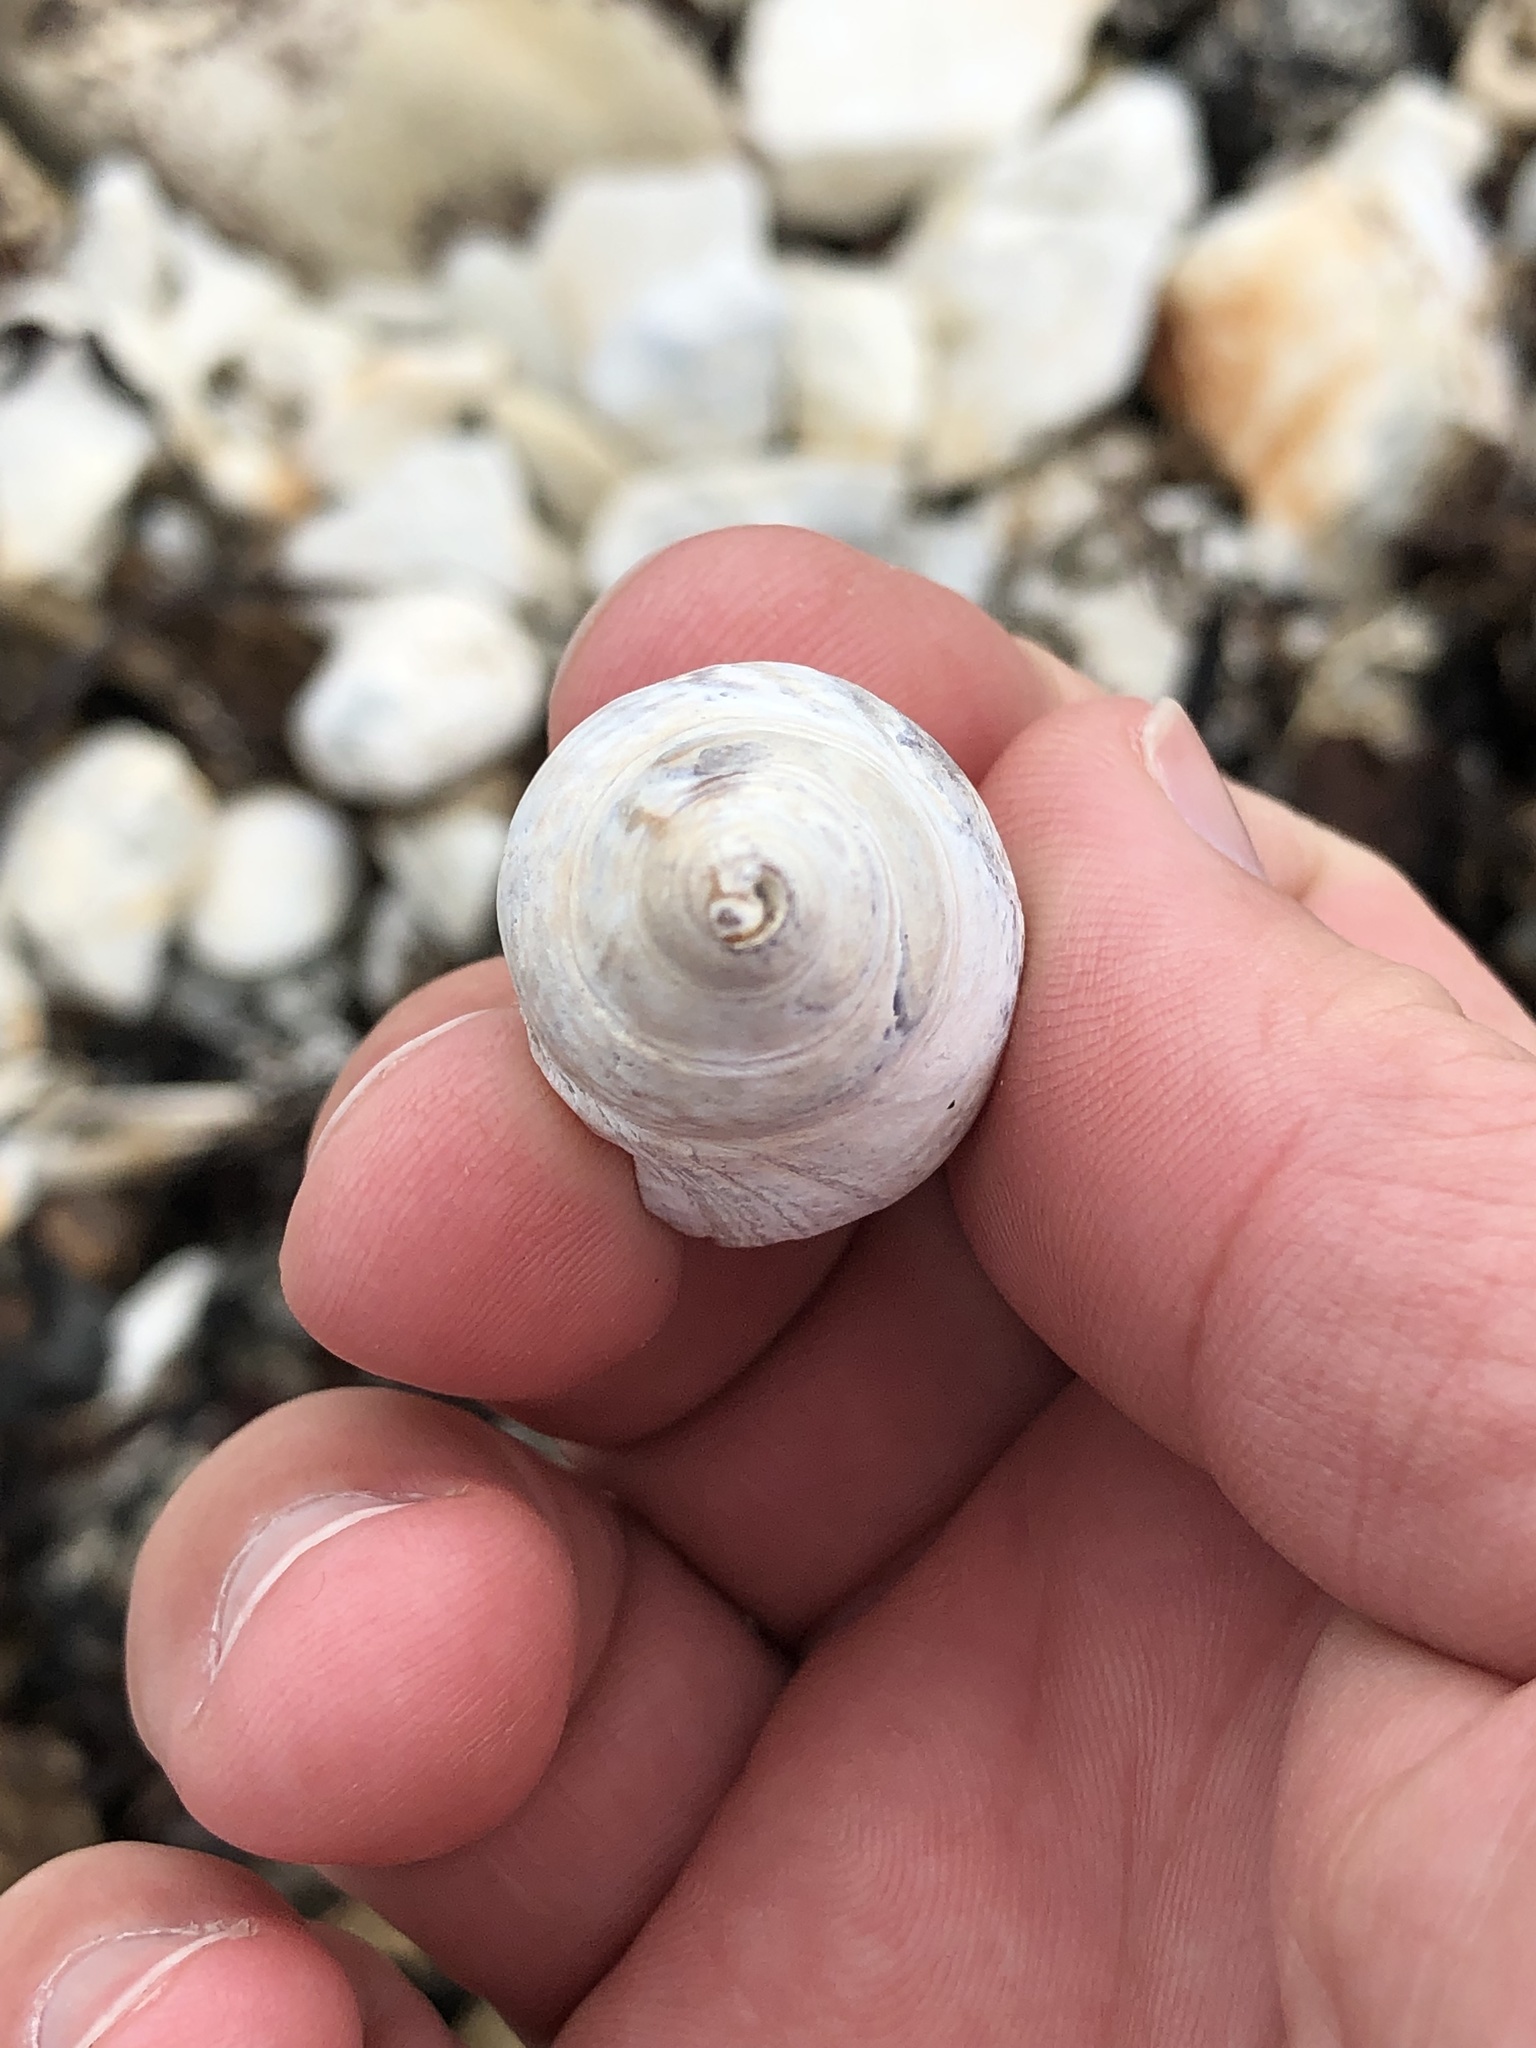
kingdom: Animalia
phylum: Mollusca
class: Gastropoda
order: Neogastropoda
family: Cominellidae
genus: Cominella
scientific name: Cominella maculosa
